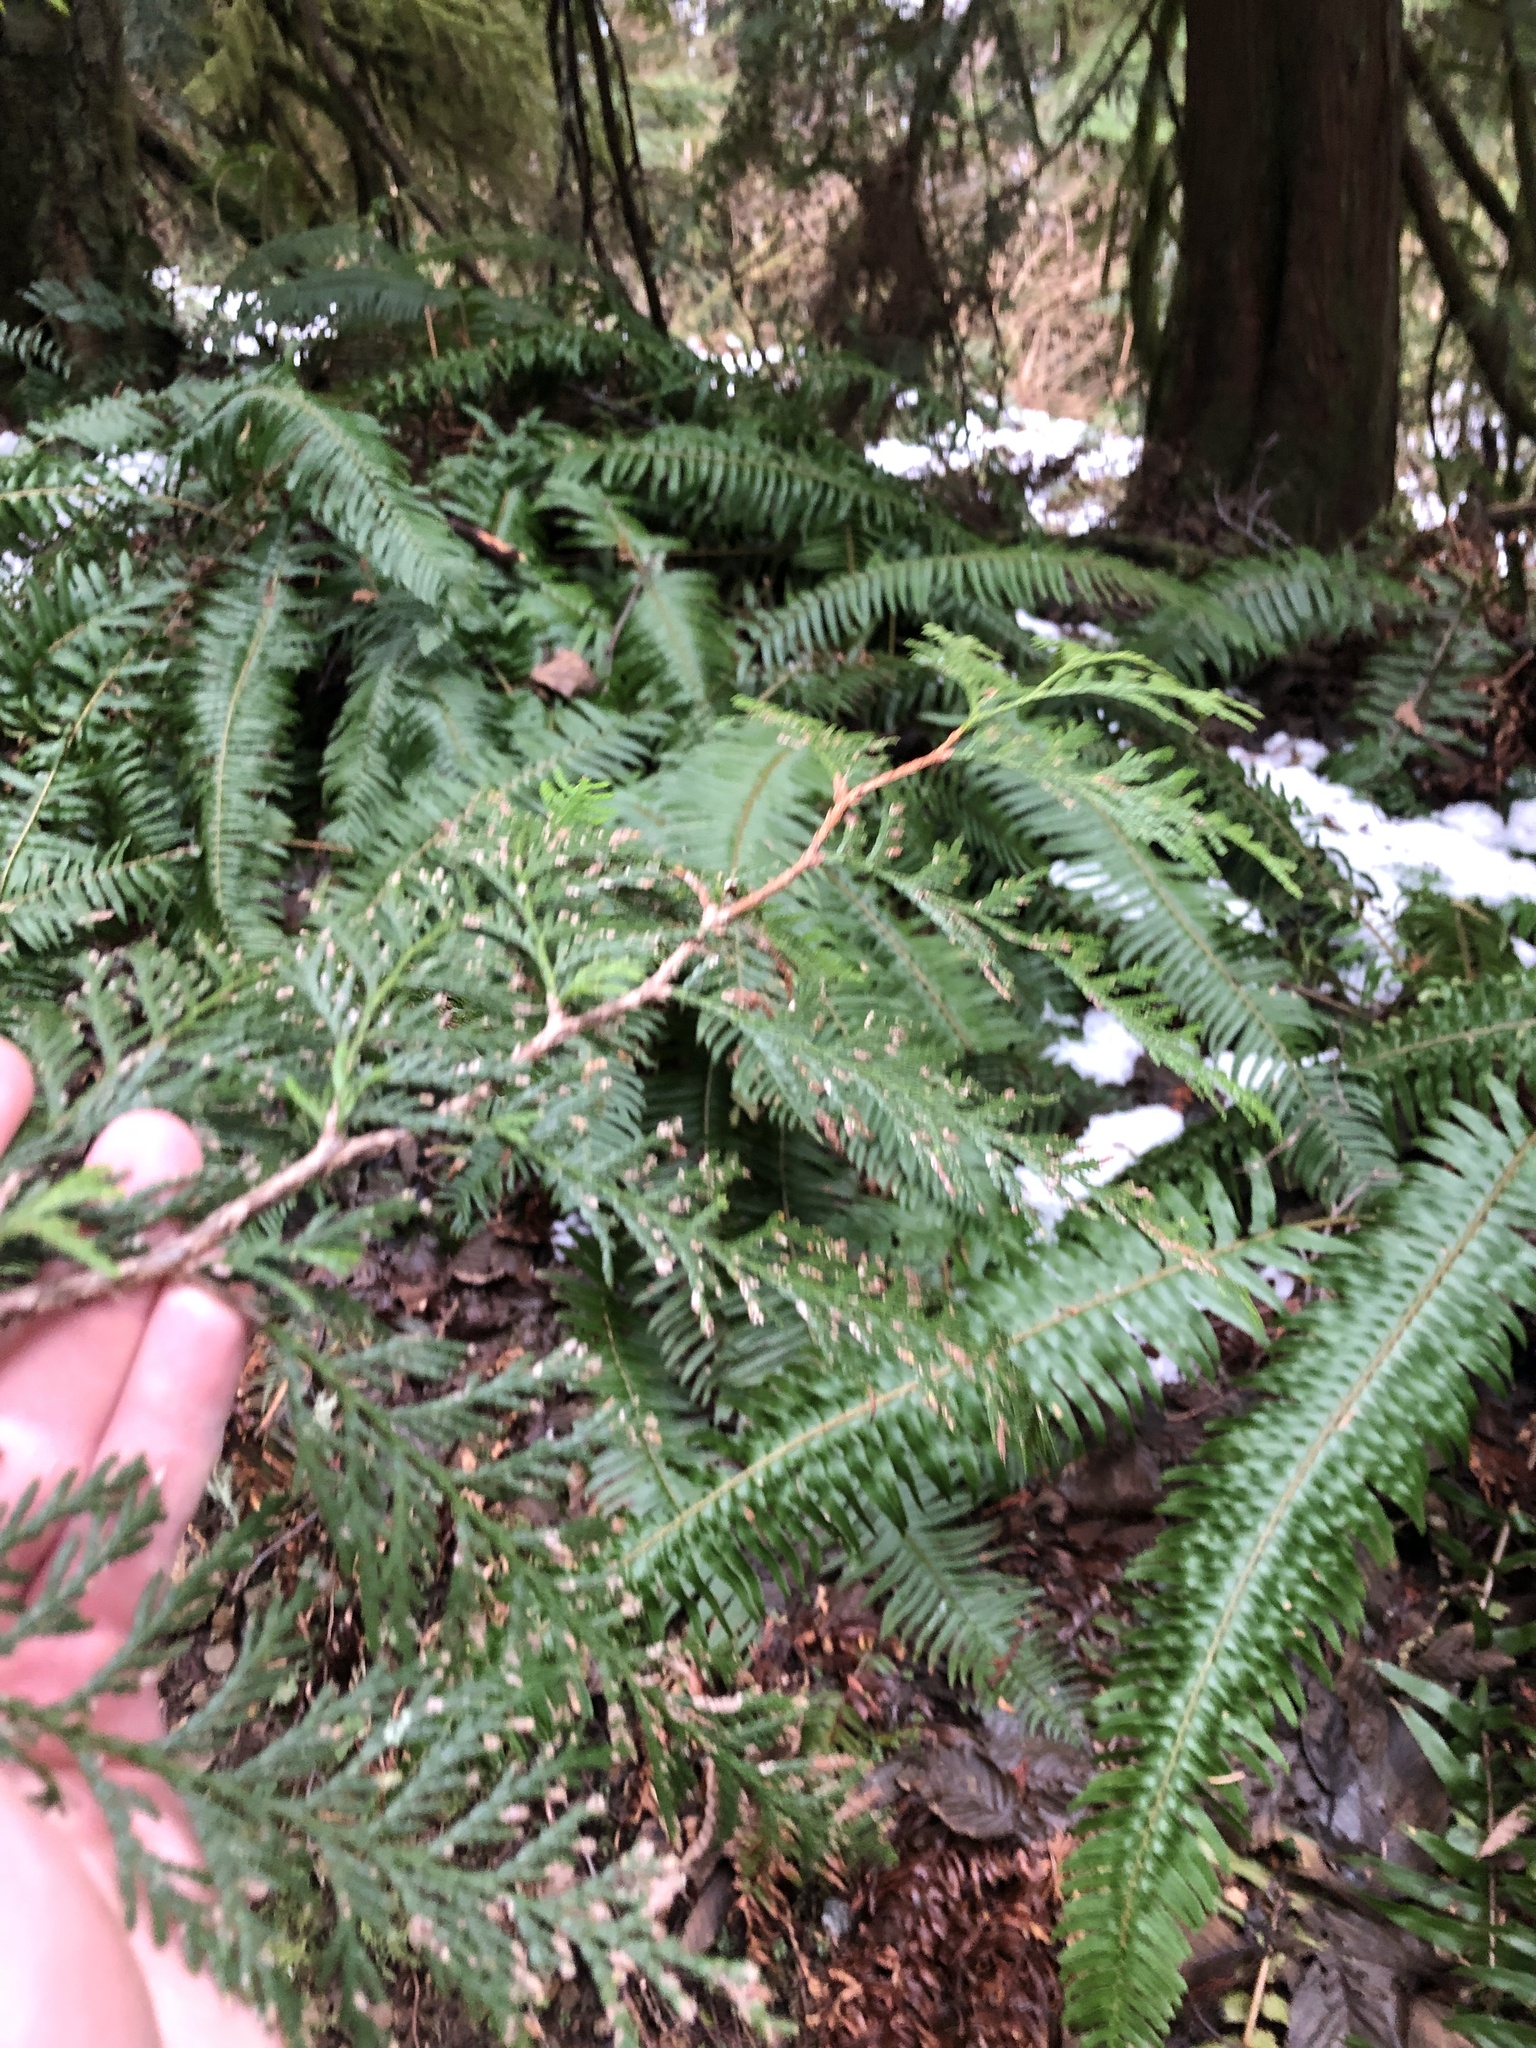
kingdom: Plantae
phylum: Tracheophyta
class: Pinopsida
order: Pinales
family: Cupressaceae
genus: Thuja
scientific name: Thuja plicata
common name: Western red-cedar
